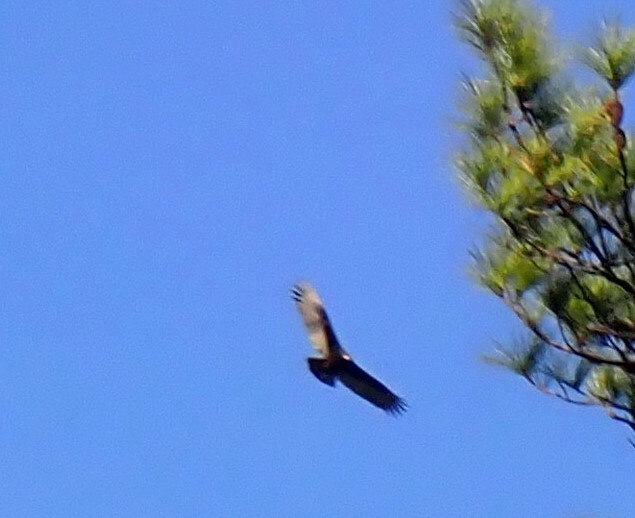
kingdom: Animalia
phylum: Chordata
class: Aves
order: Accipitriformes
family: Cathartidae
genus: Cathartes
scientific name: Cathartes aura
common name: Turkey vulture
